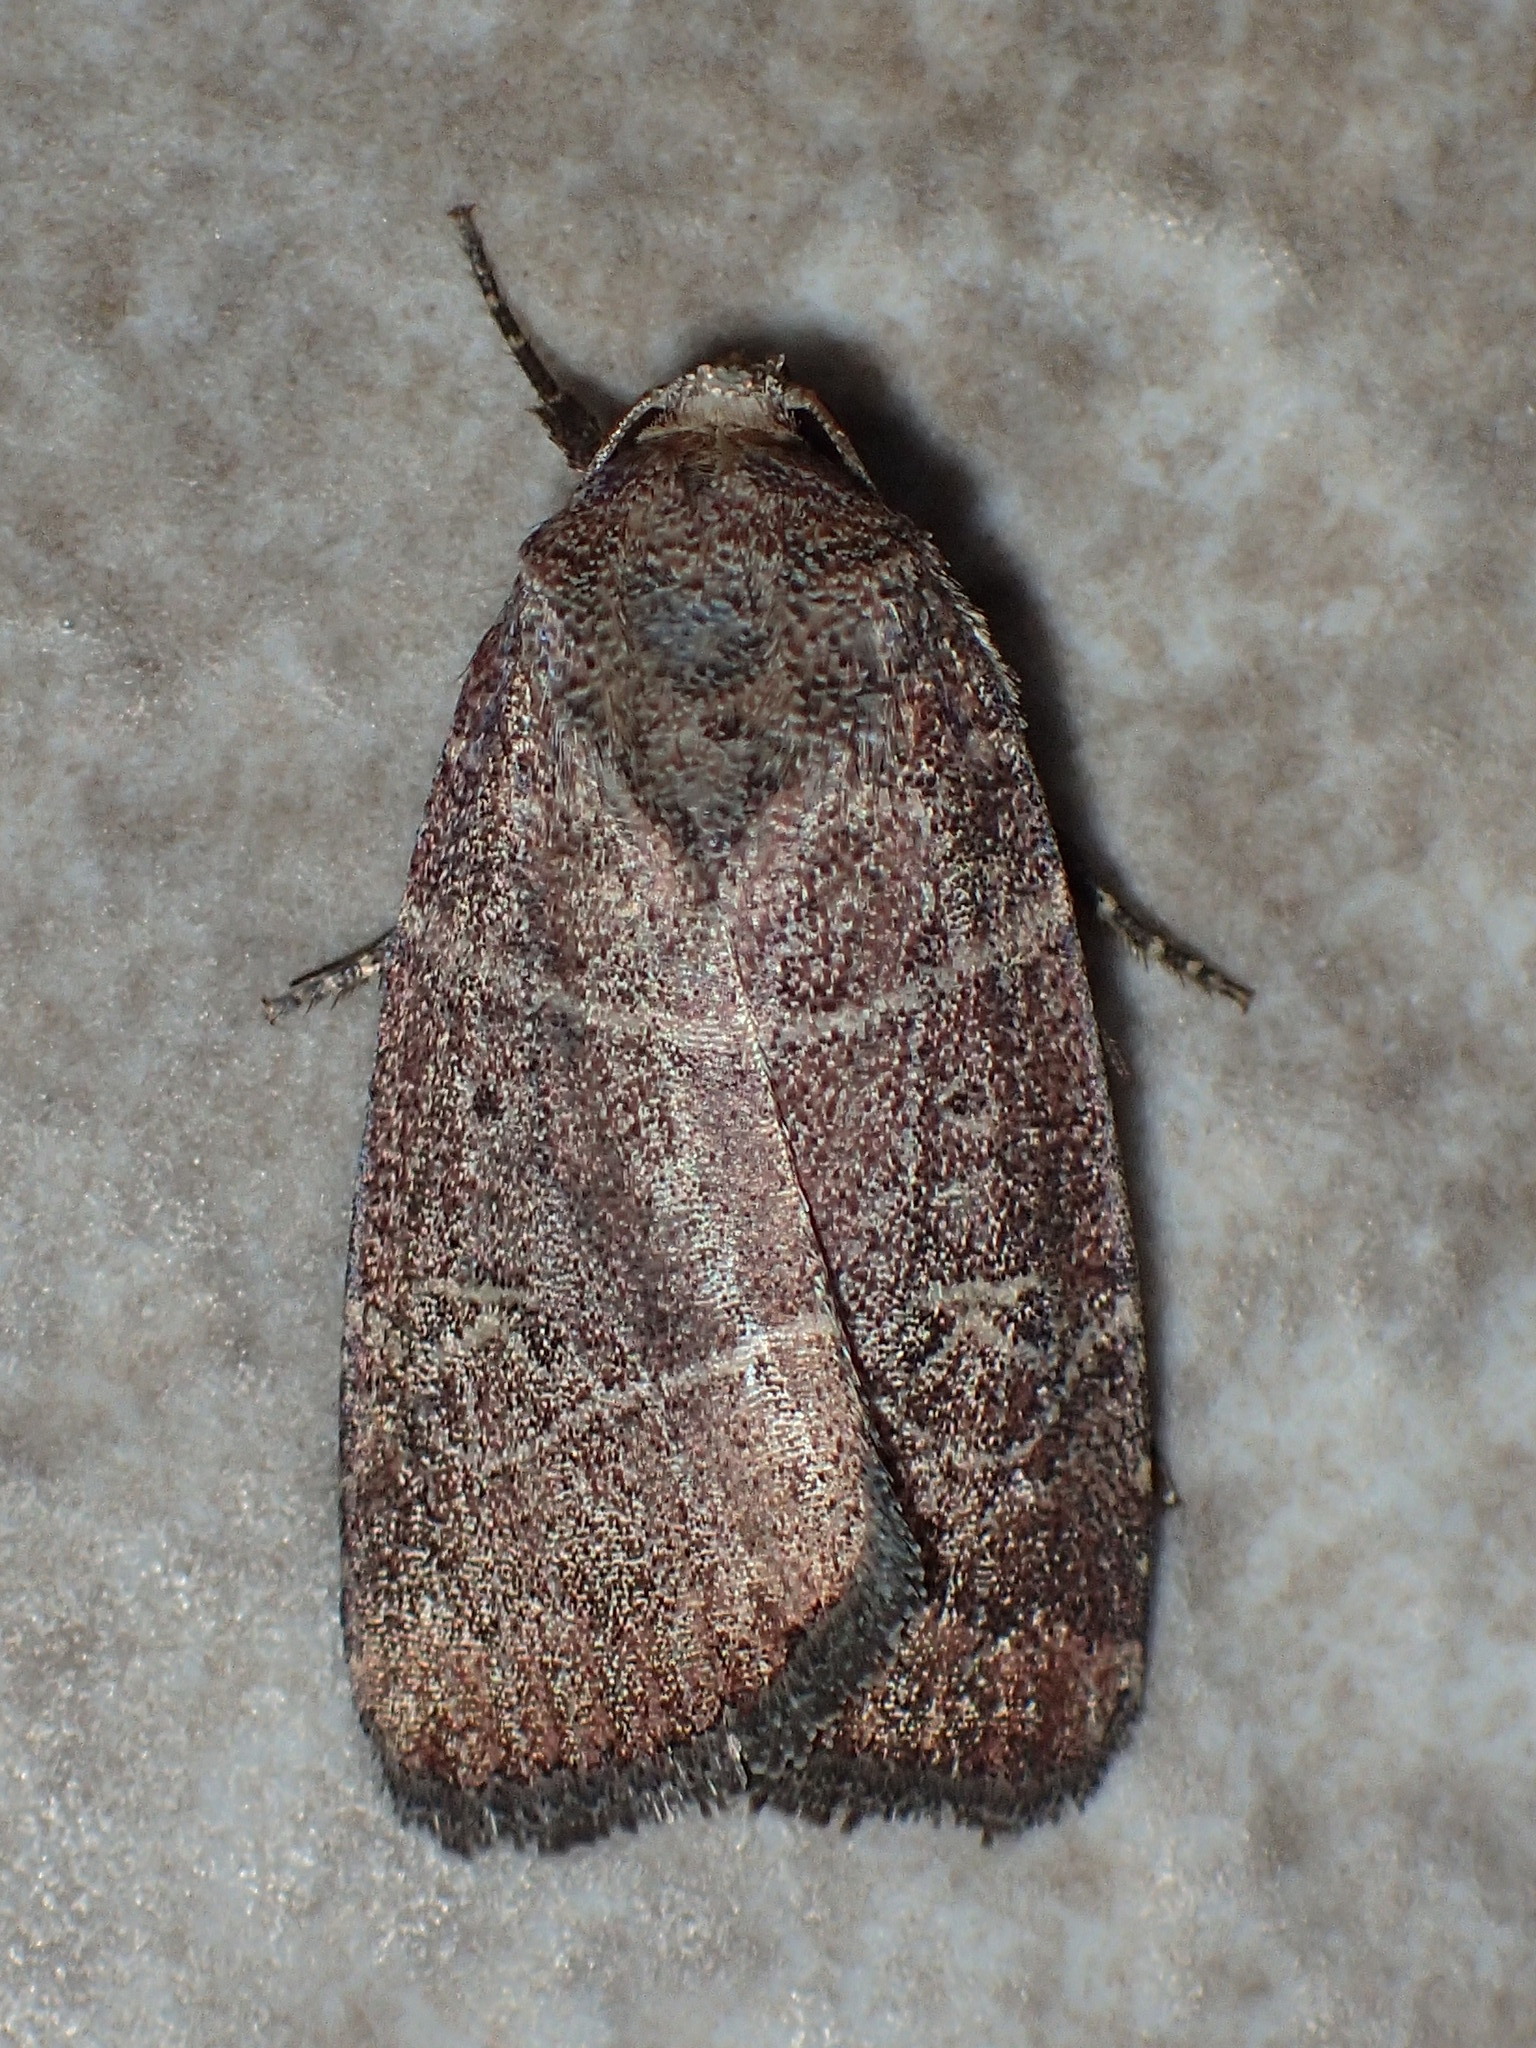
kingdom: Animalia
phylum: Arthropoda
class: Insecta
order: Lepidoptera
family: Noctuidae
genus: Elaphria
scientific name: Elaphria grata
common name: Grateful midget moth
